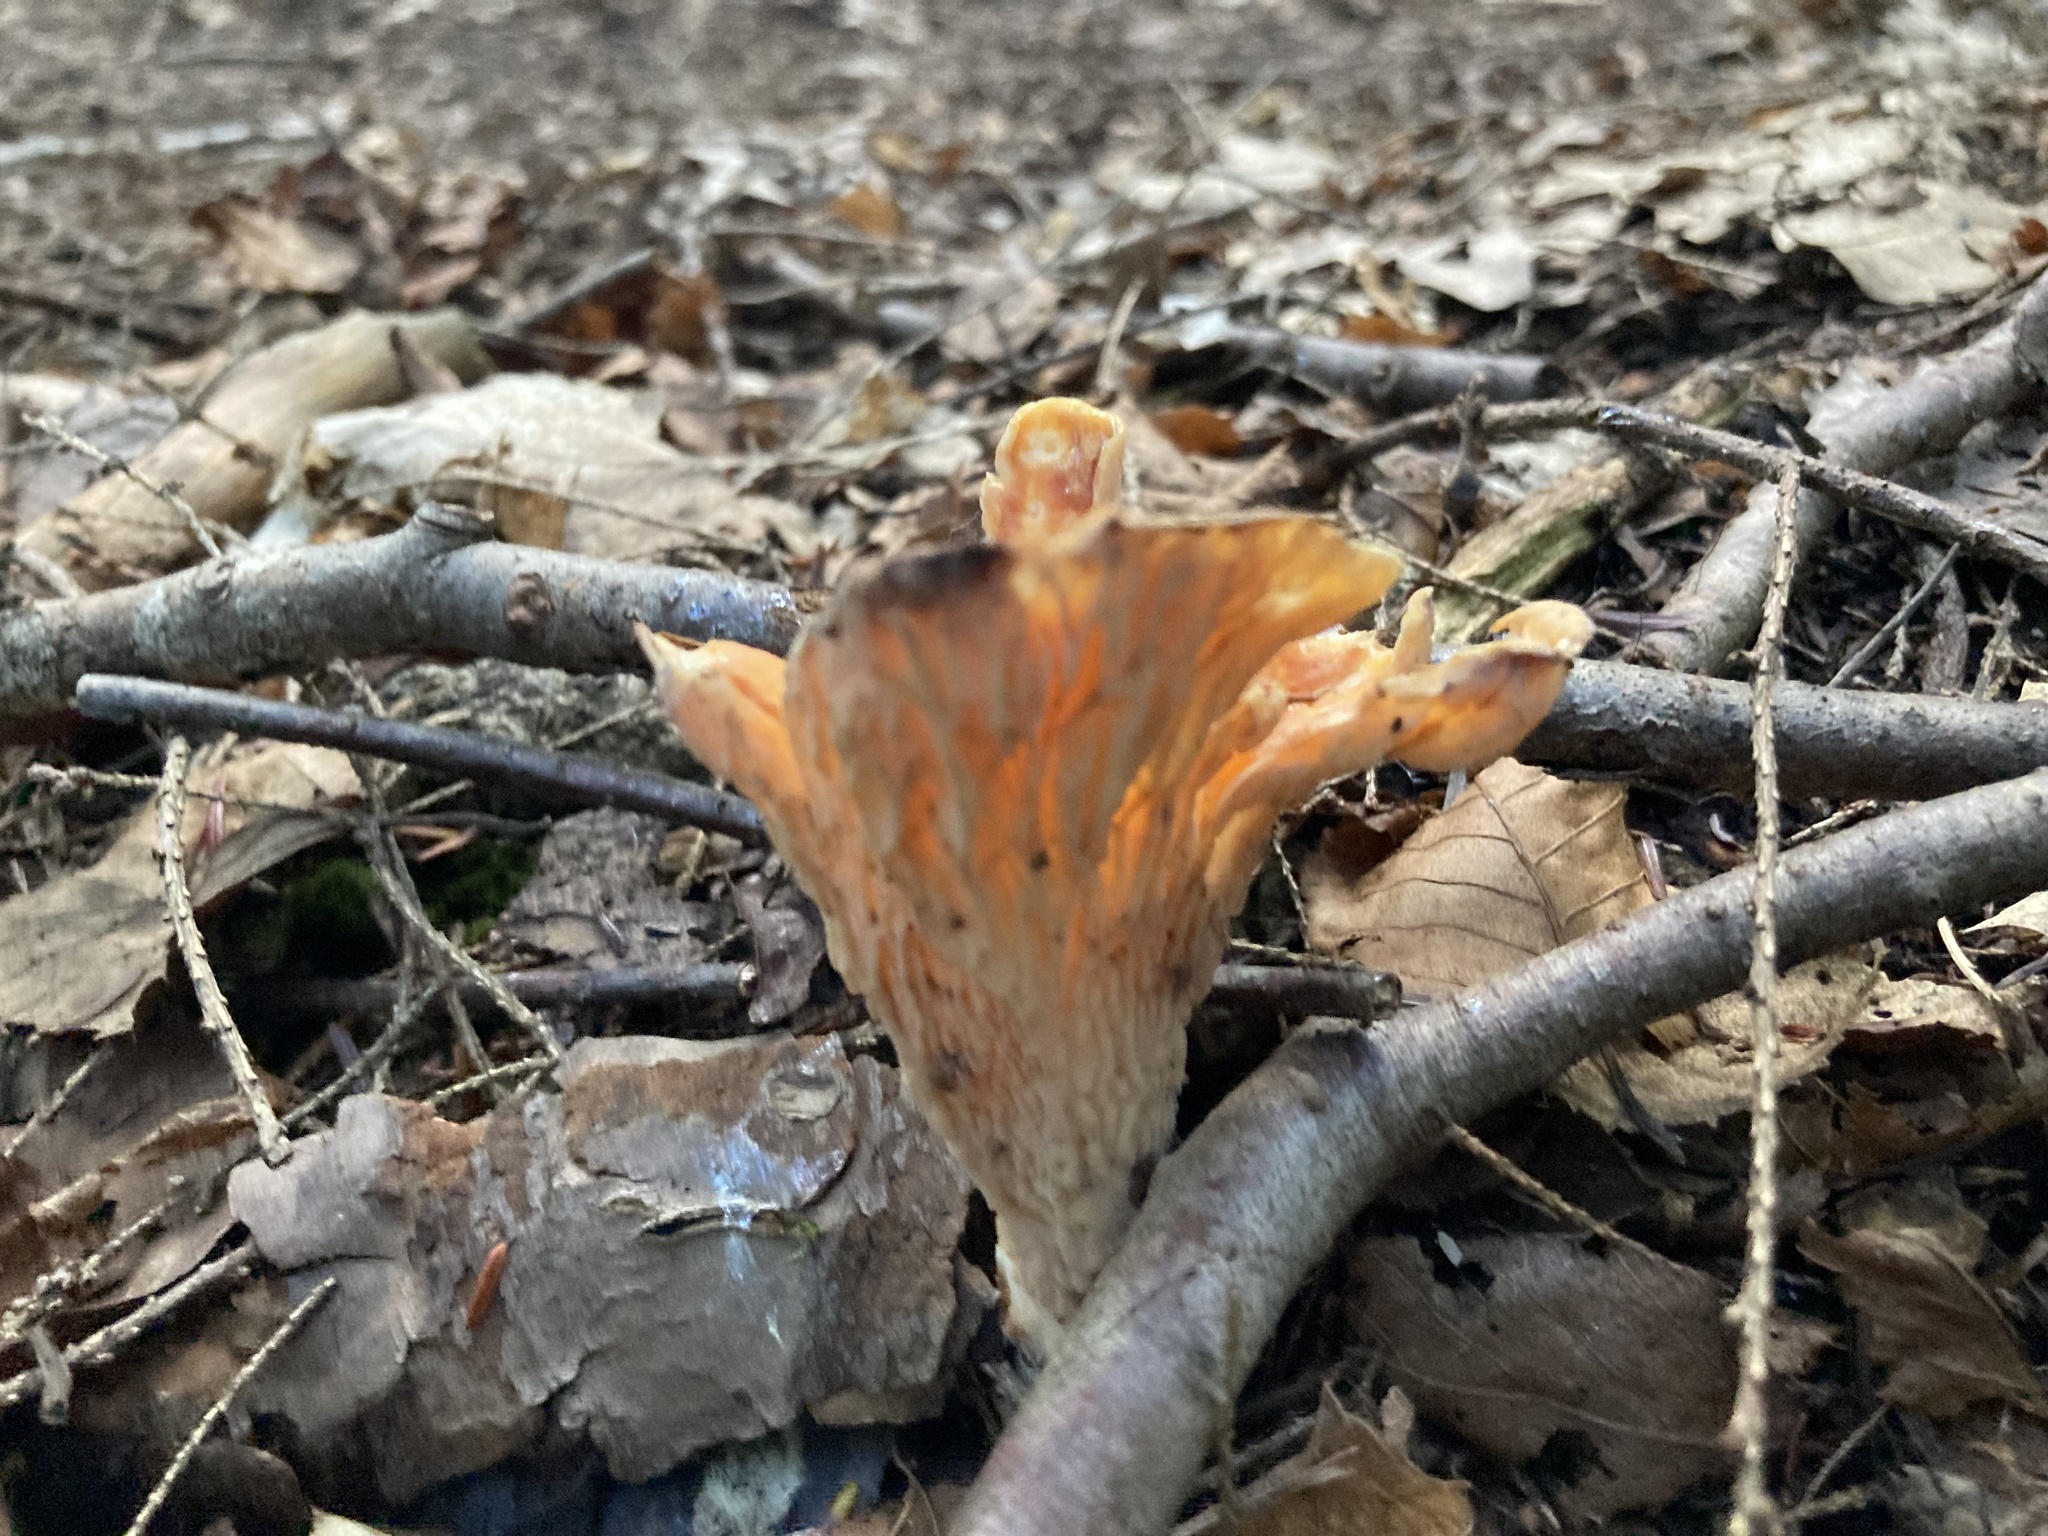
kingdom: Fungi
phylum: Basidiomycota
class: Agaricomycetes
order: Gomphales
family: Gomphaceae
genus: Turbinellus
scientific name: Turbinellus floccosus
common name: Scaly chanterelle
